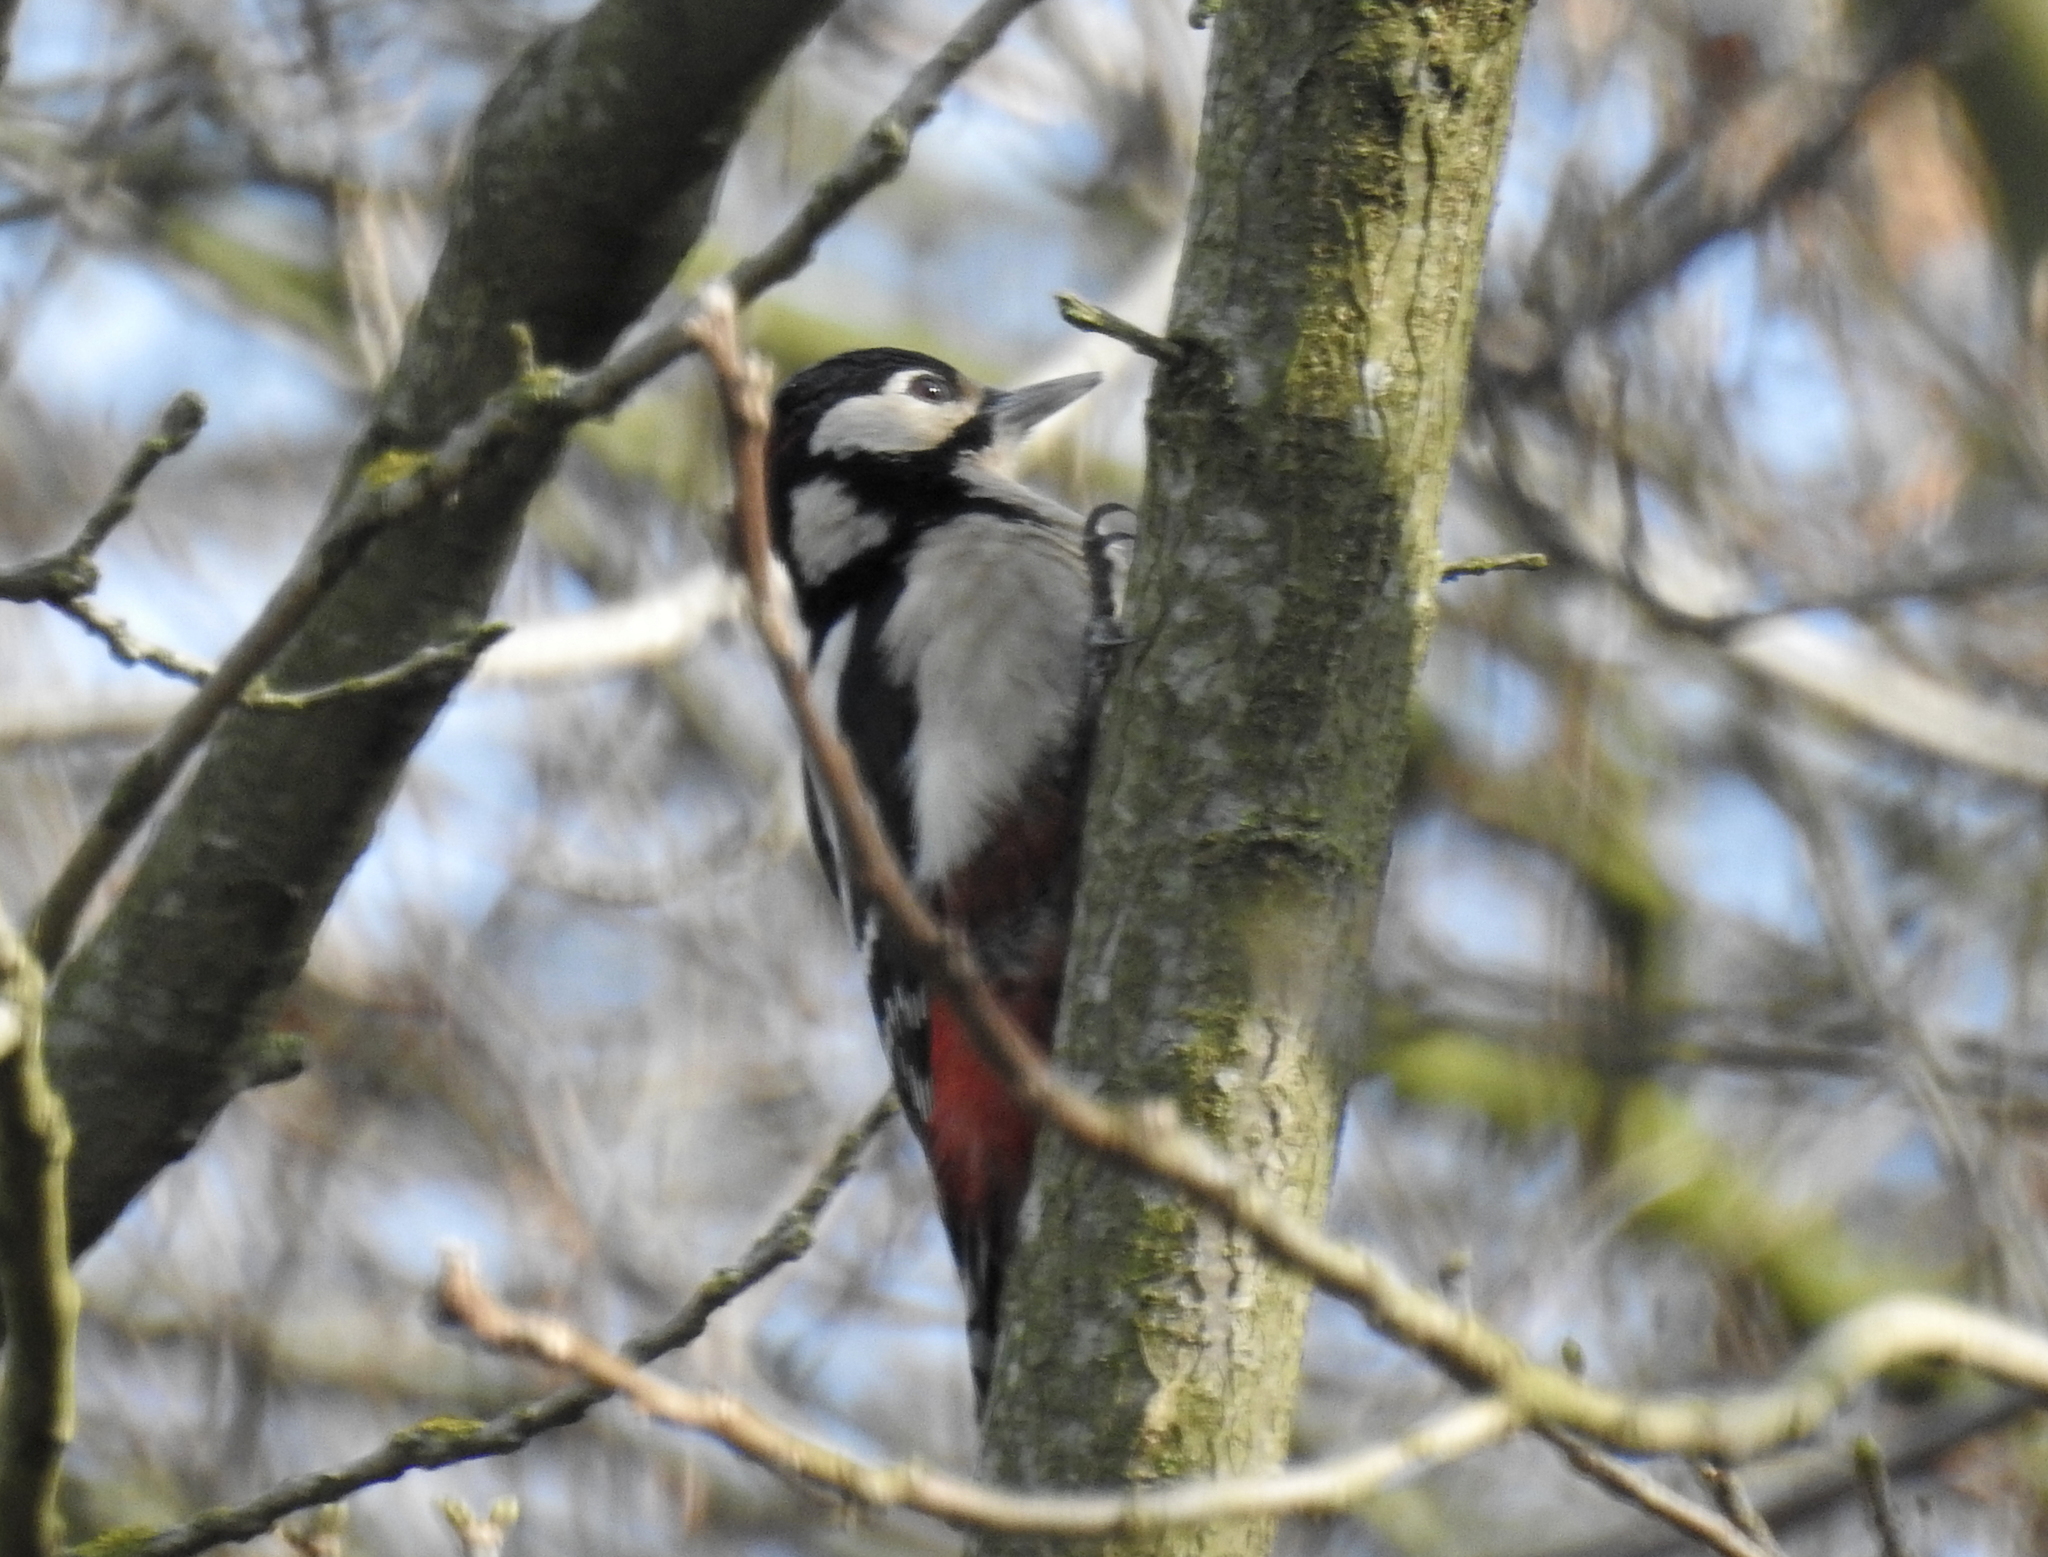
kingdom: Animalia
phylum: Chordata
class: Aves
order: Piciformes
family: Picidae
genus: Dendrocopos
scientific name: Dendrocopos major
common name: Great spotted woodpecker
